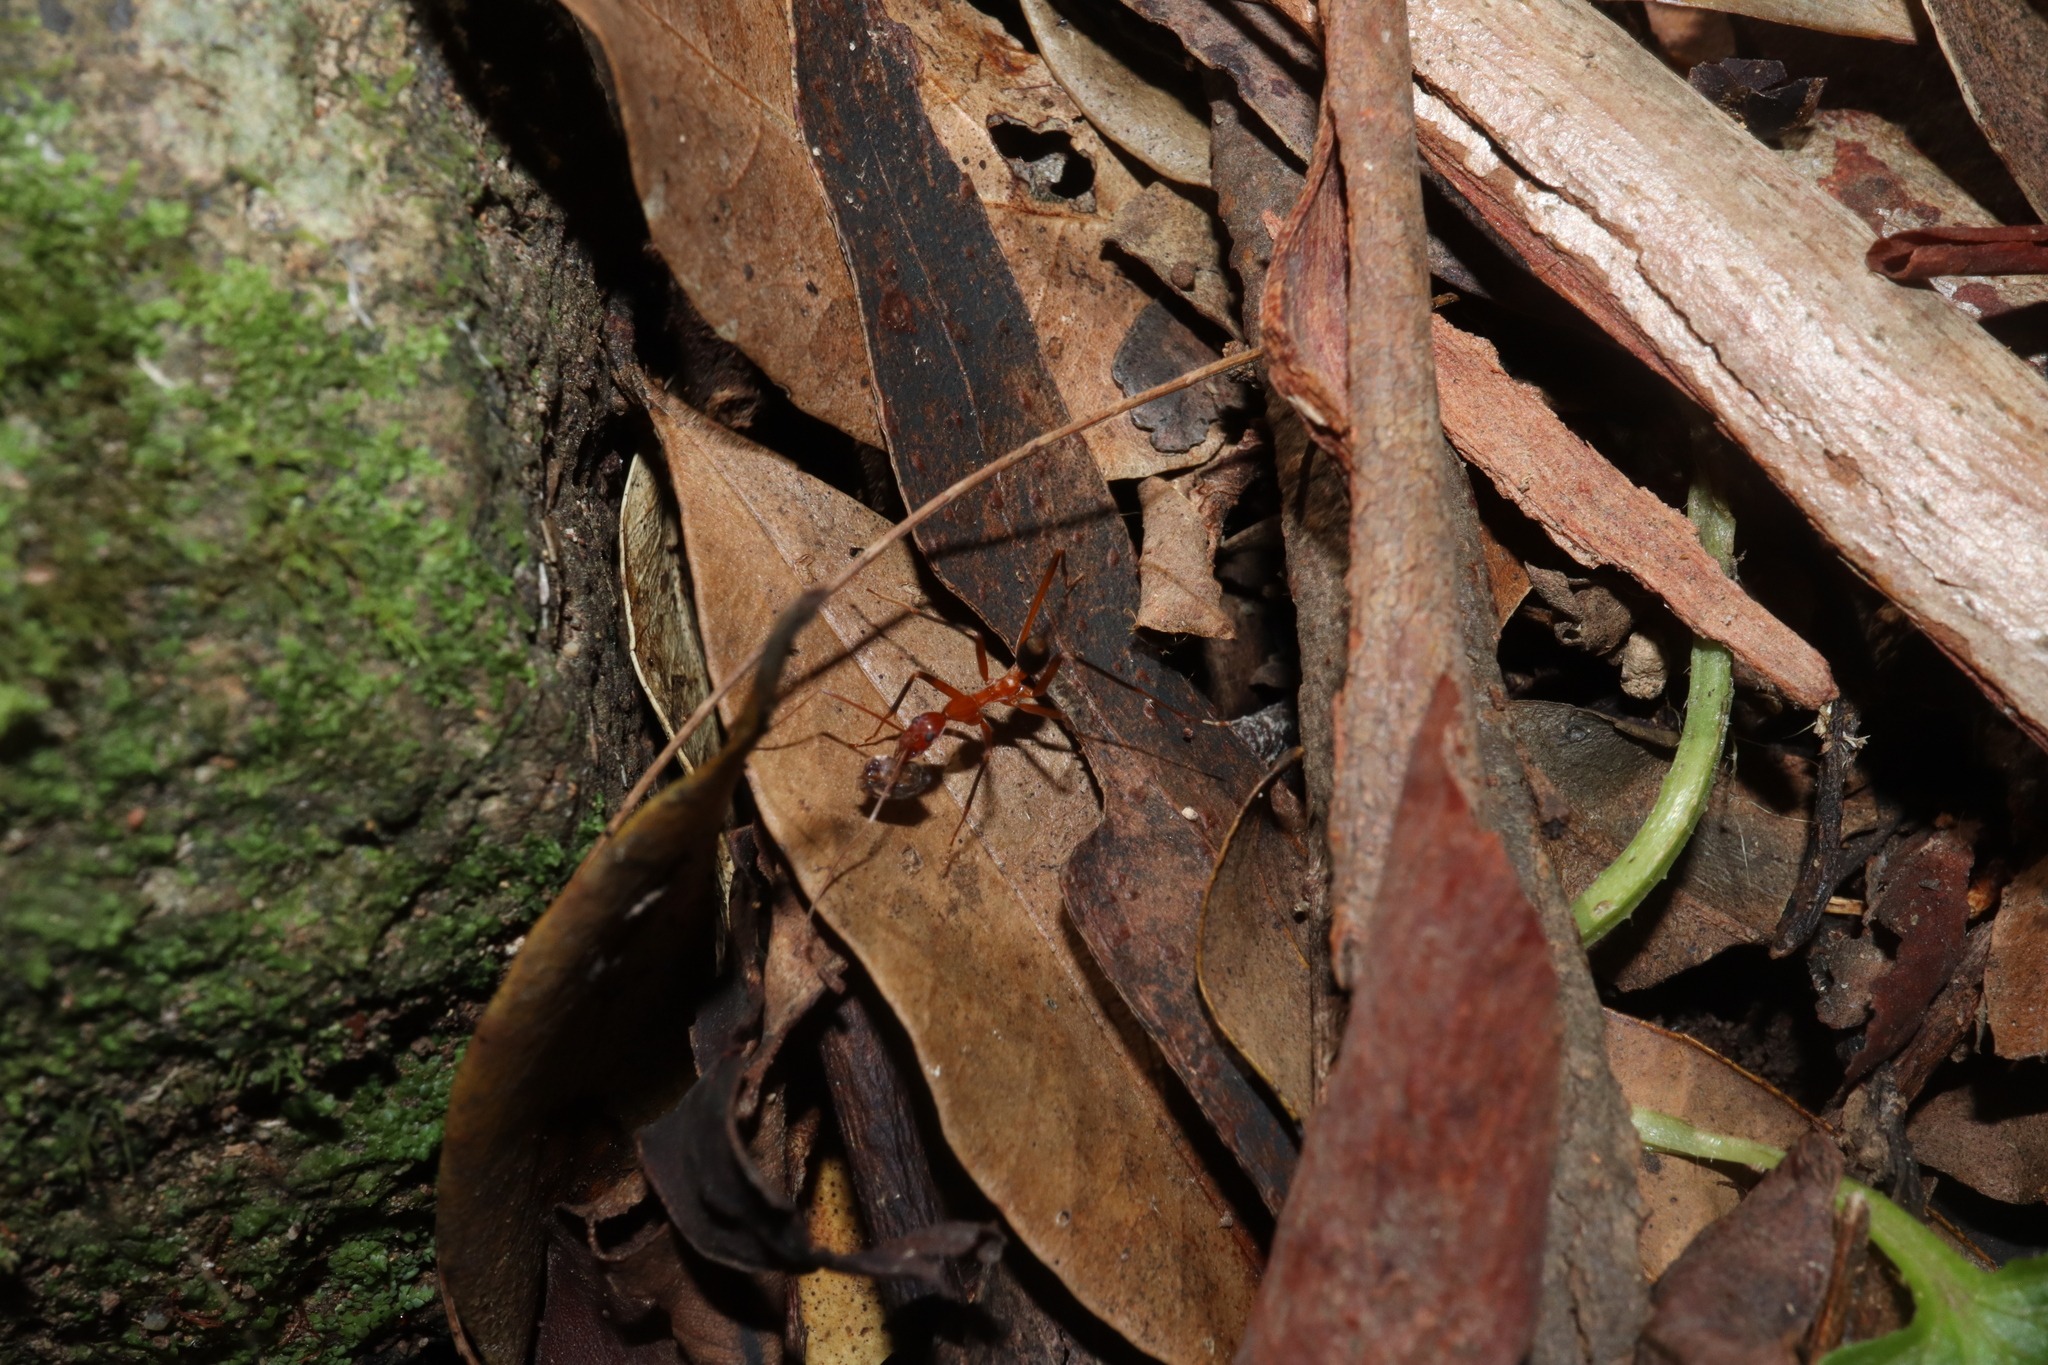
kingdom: Animalia
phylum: Arthropoda
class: Insecta
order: Hymenoptera
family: Formicidae
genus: Leptomyrmex
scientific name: Leptomyrmex cnemidatus
